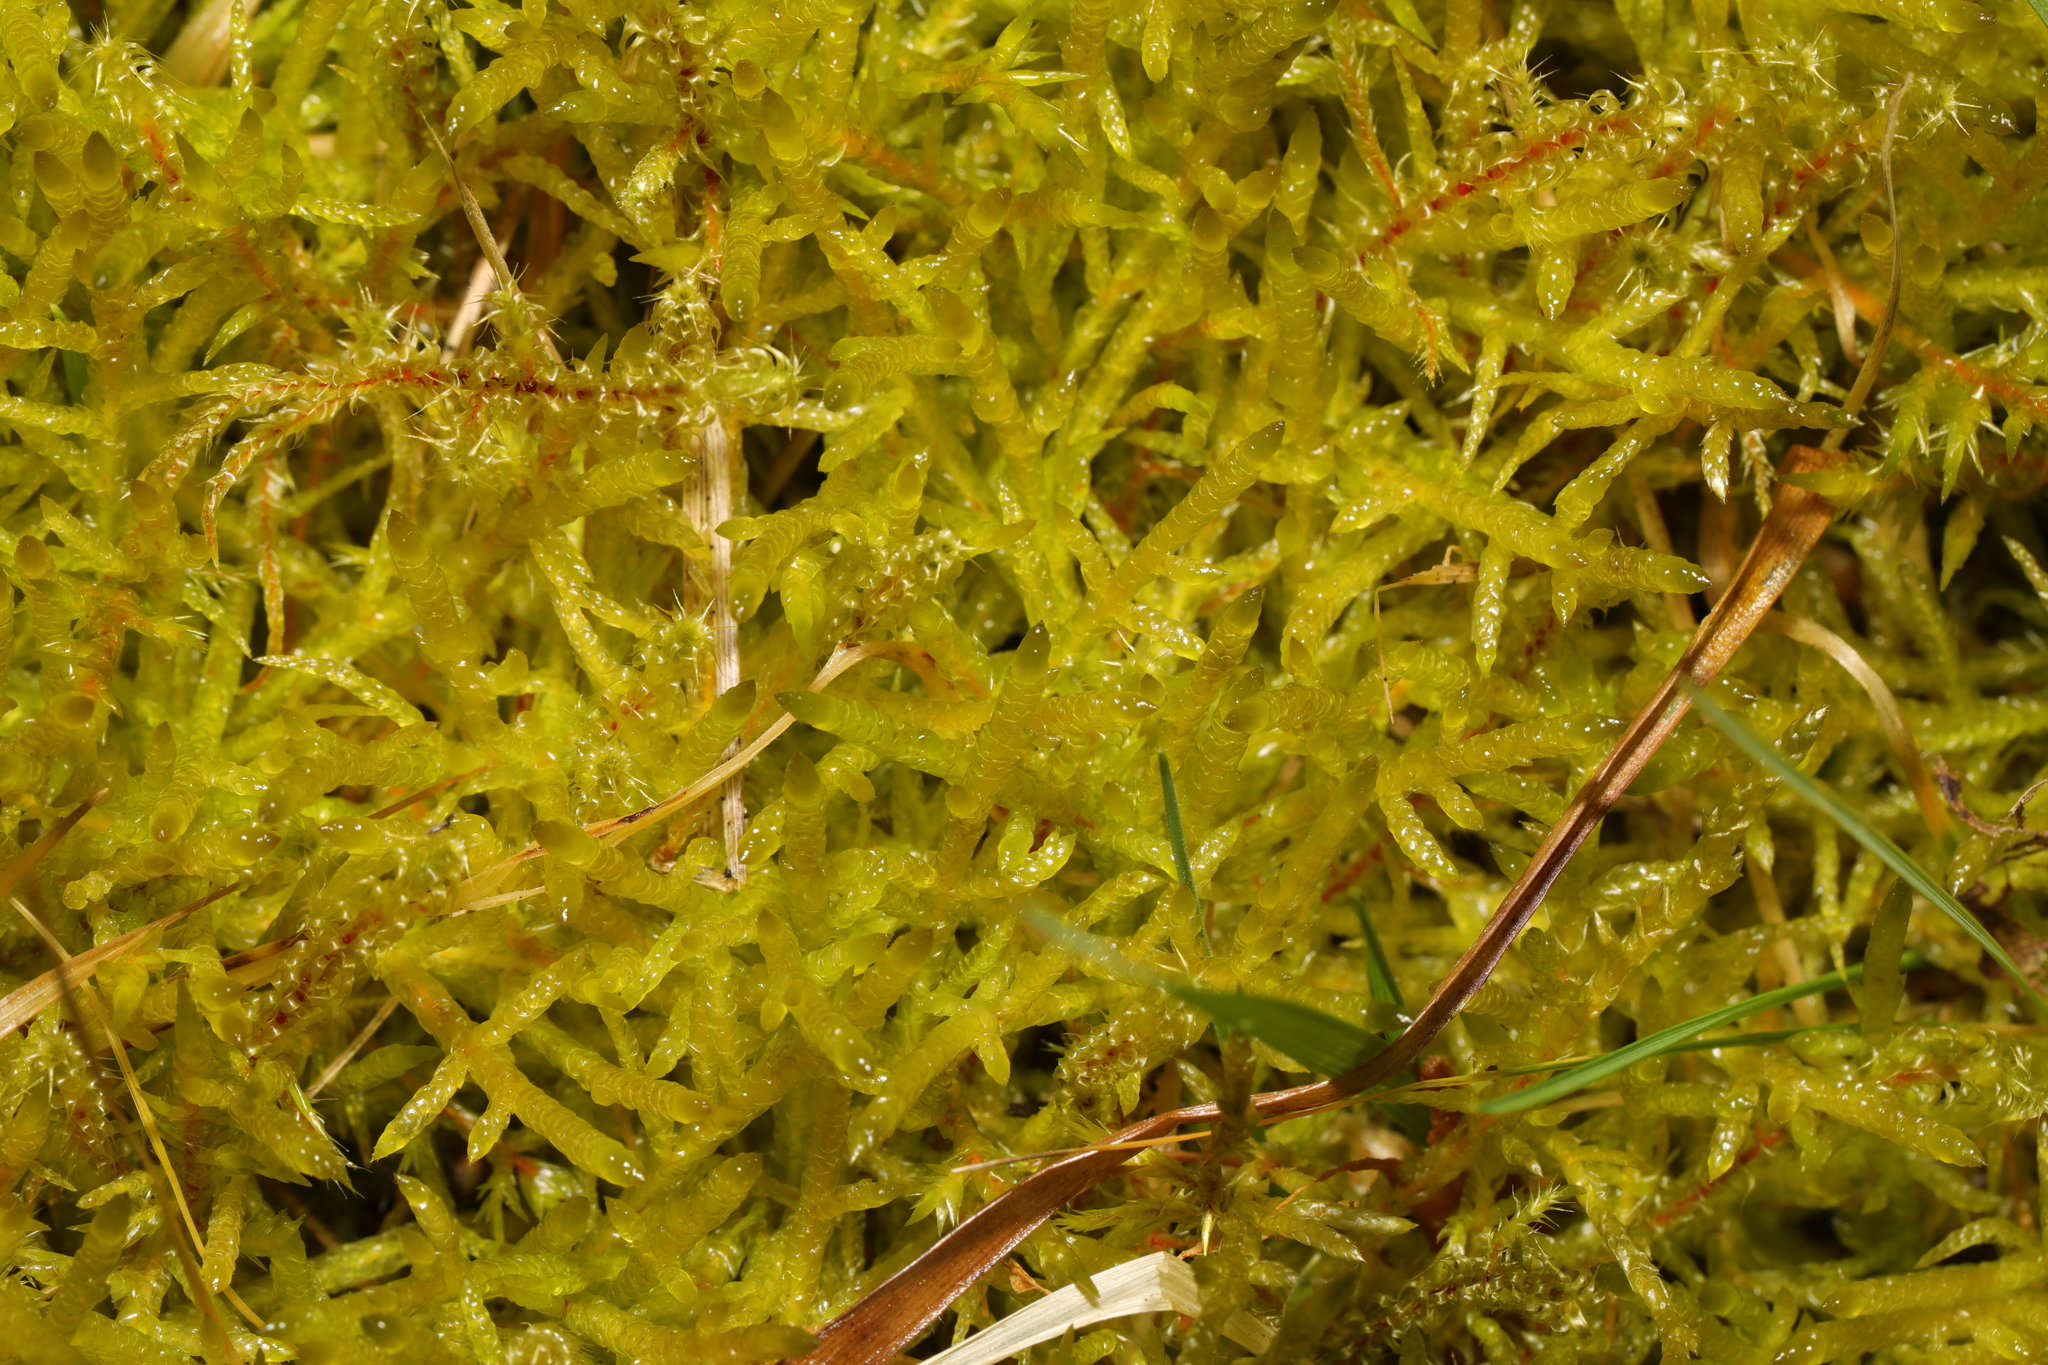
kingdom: Plantae
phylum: Bryophyta
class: Bryopsida
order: Hypnales
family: Hylocomiaceae
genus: Rhytidiadelphus
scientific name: Rhytidiadelphus squarrosus
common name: Springy turf-moss
